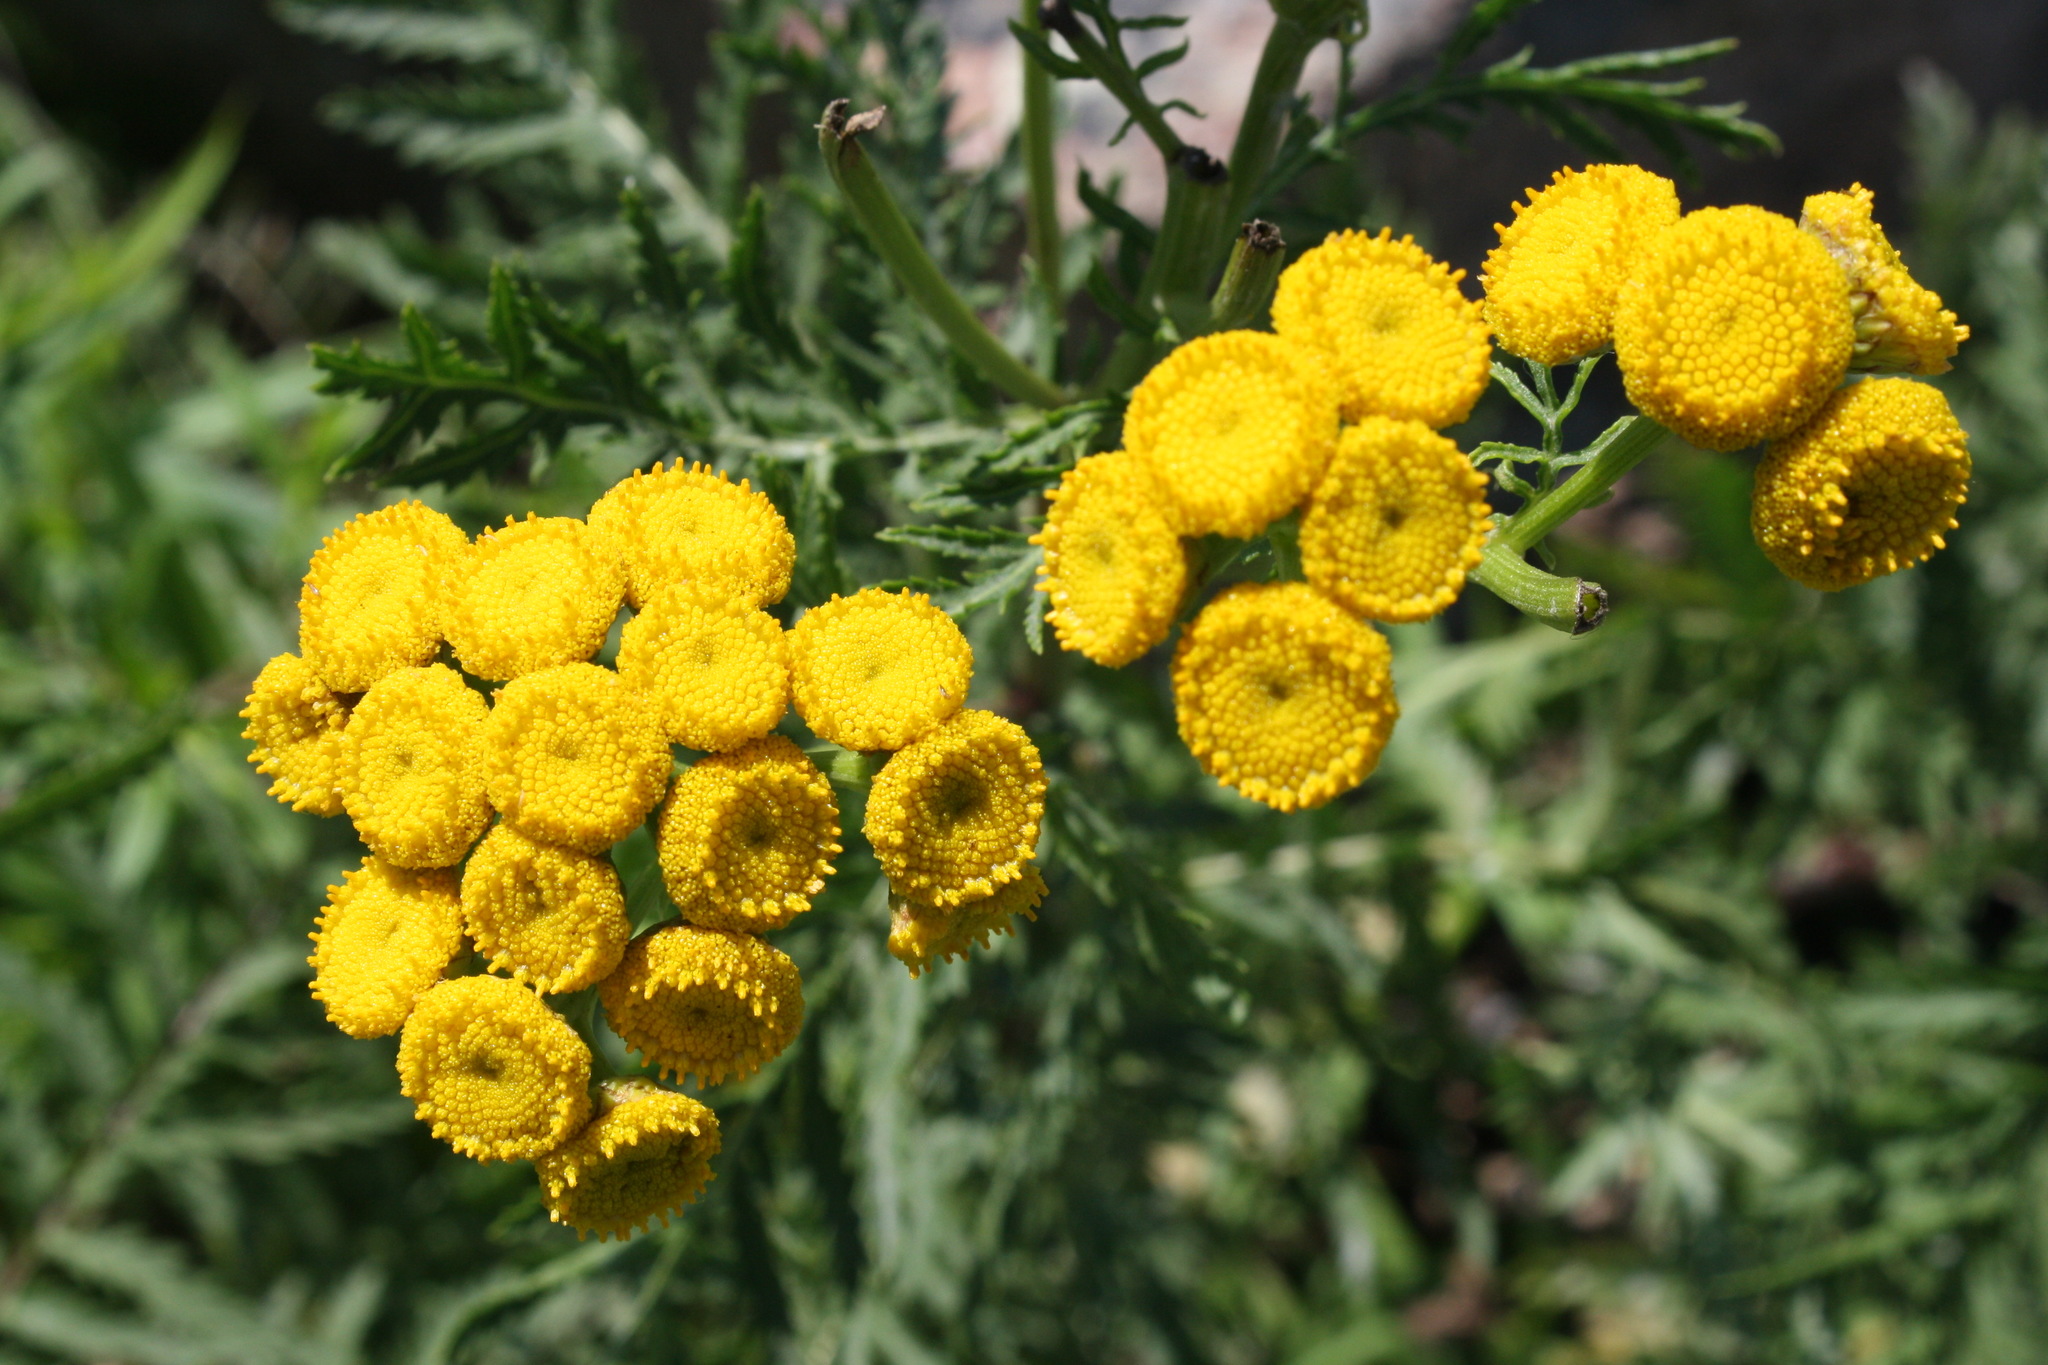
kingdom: Plantae
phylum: Tracheophyta
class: Magnoliopsida
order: Asterales
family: Asteraceae
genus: Tanacetum
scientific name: Tanacetum vulgare
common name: Common tansy
